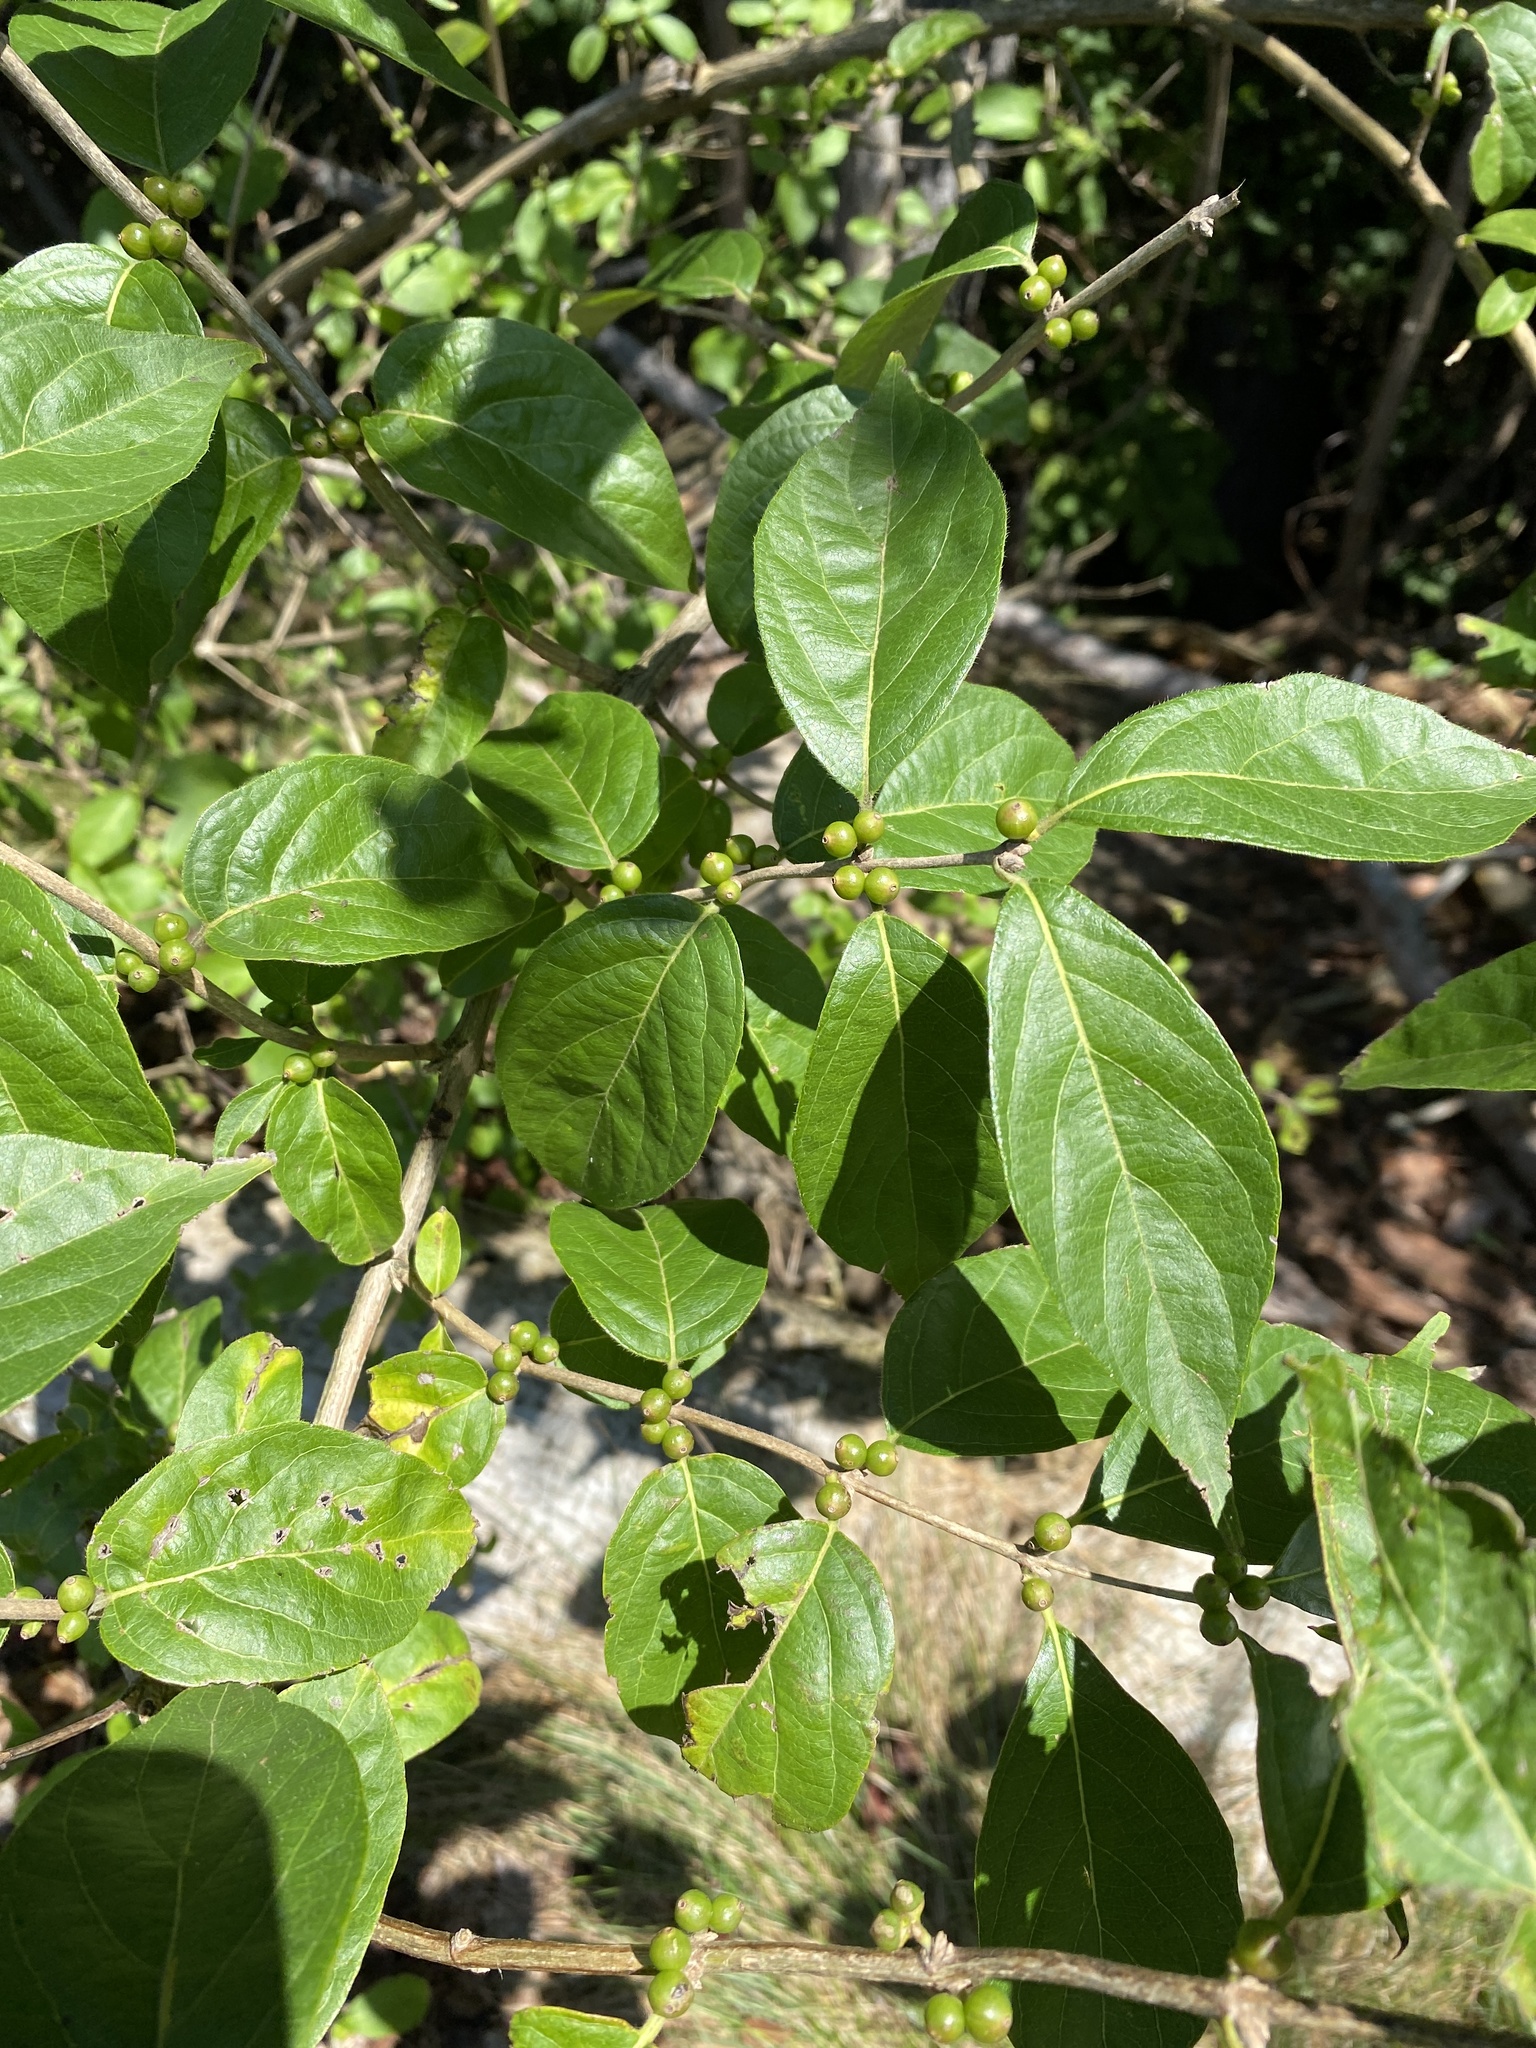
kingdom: Plantae
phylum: Tracheophyta
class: Magnoliopsida
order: Dipsacales
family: Caprifoliaceae
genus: Lonicera
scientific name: Lonicera maackii
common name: Amur honeysuckle
